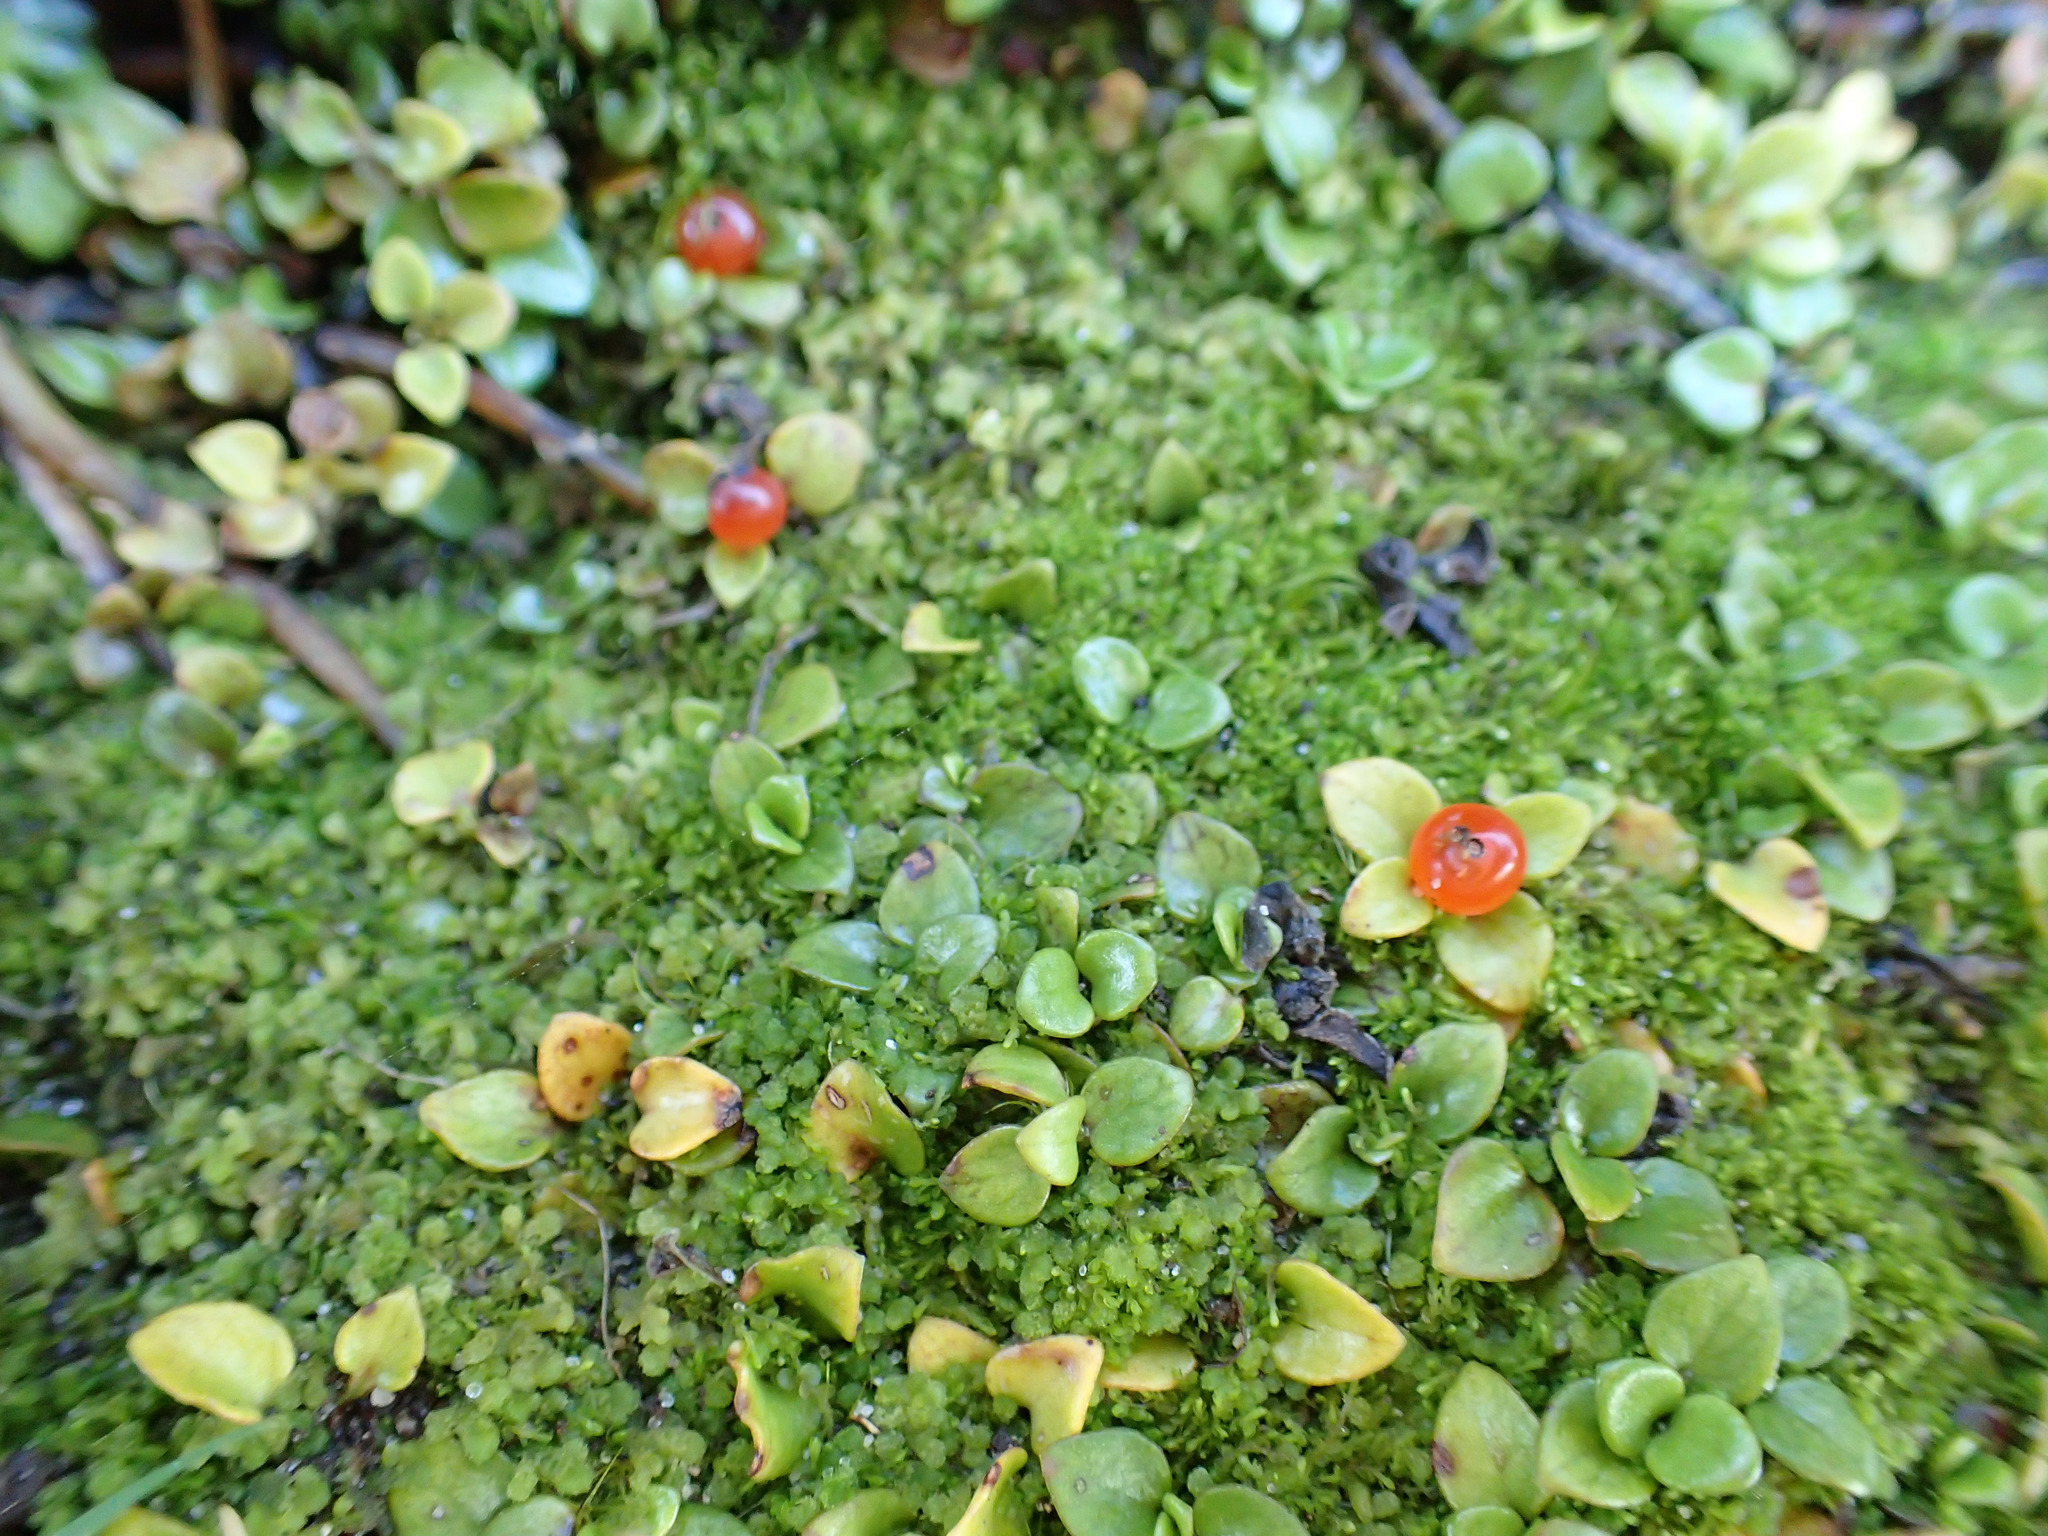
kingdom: Plantae
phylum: Tracheophyta
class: Magnoliopsida
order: Gentianales
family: Rubiaceae
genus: Nertera
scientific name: Nertera granadensis
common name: Beadplant
